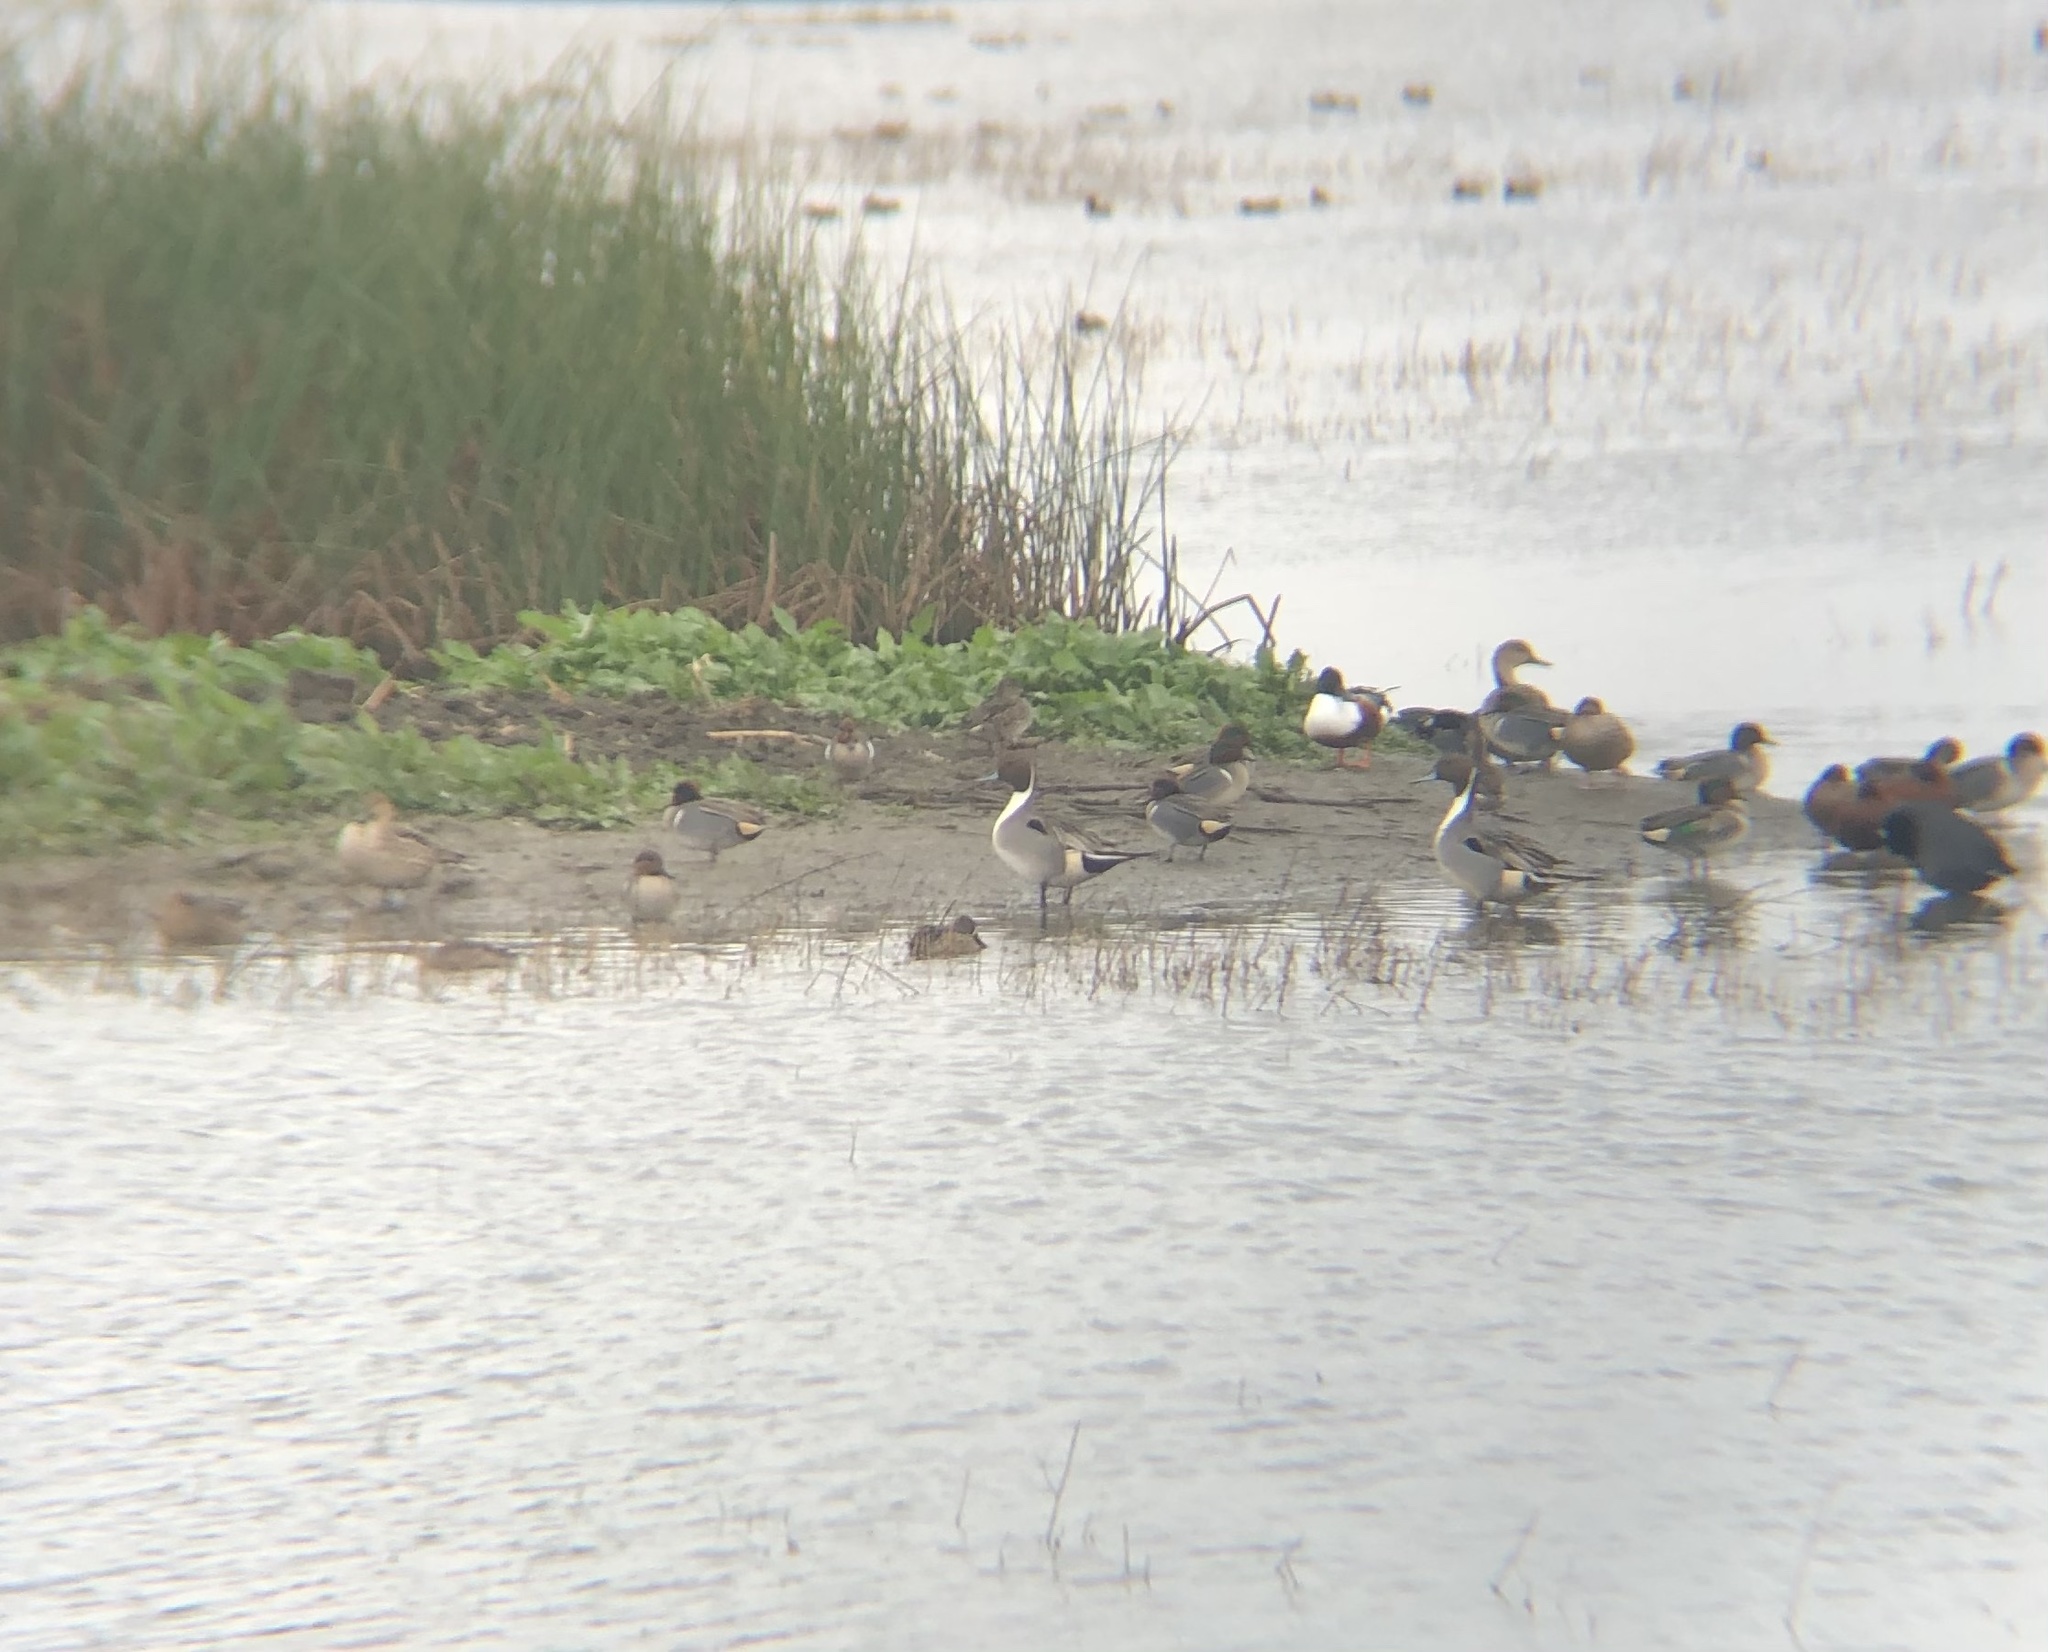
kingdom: Animalia
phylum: Chordata
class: Aves
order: Anseriformes
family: Anatidae
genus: Anas
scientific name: Anas acuta
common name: Northern pintail
